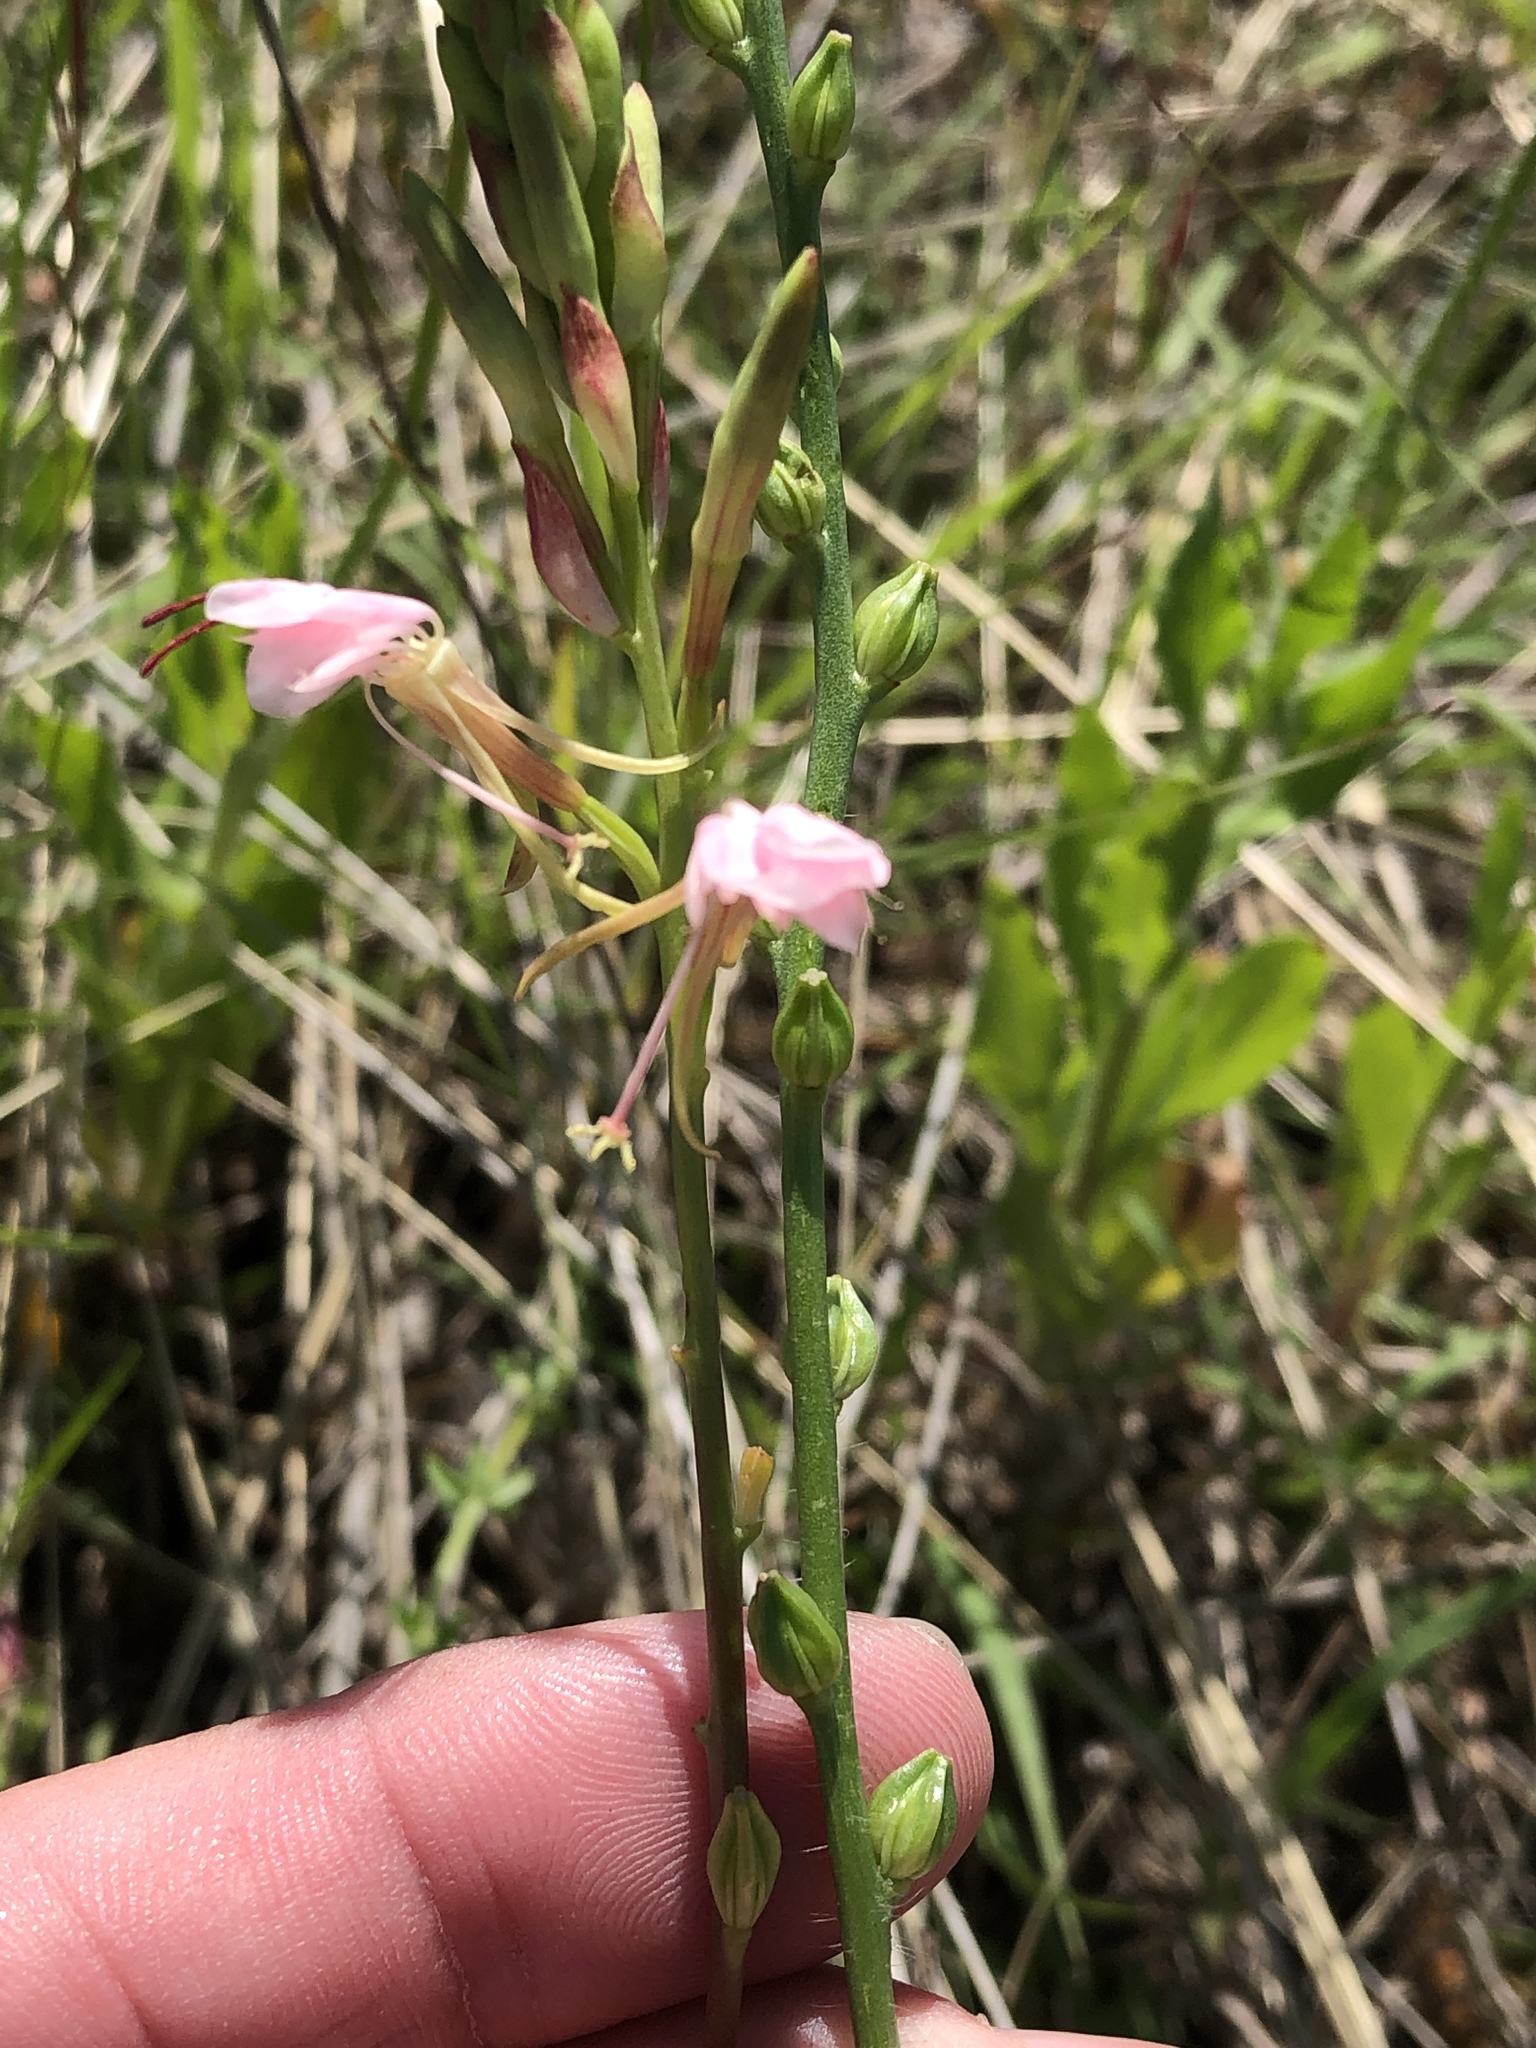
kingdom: Plantae
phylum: Tracheophyta
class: Magnoliopsida
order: Myrtales
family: Onagraceae
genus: Oenothera
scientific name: Oenothera suffulta
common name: Kisses
